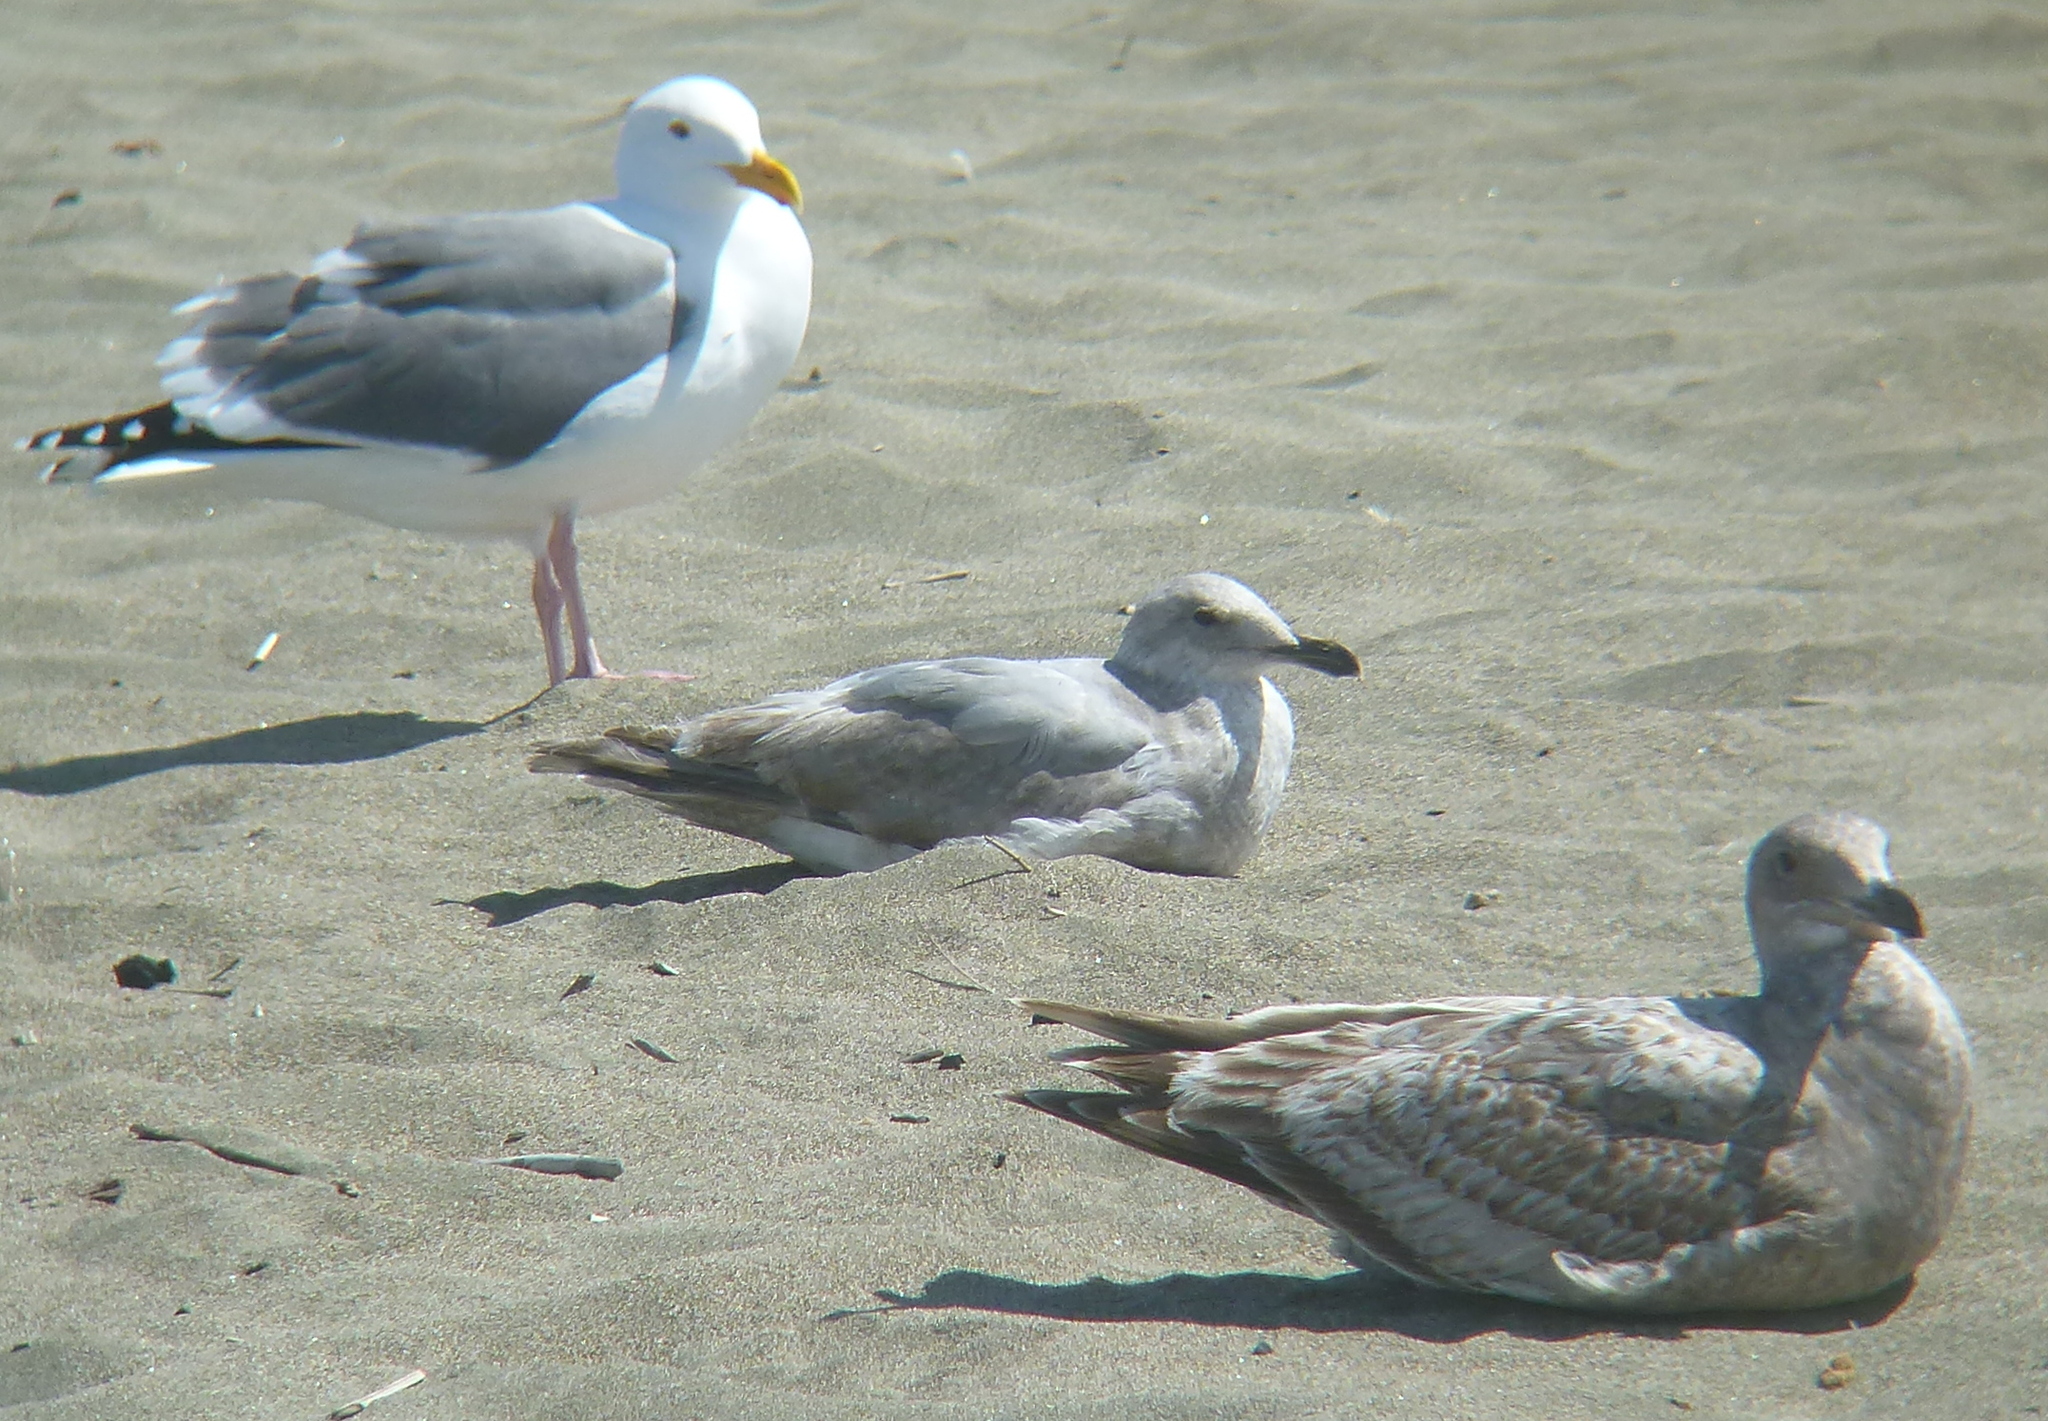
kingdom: Animalia
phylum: Chordata
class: Aves
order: Charadriiformes
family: Laridae
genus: Larus
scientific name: Larus
